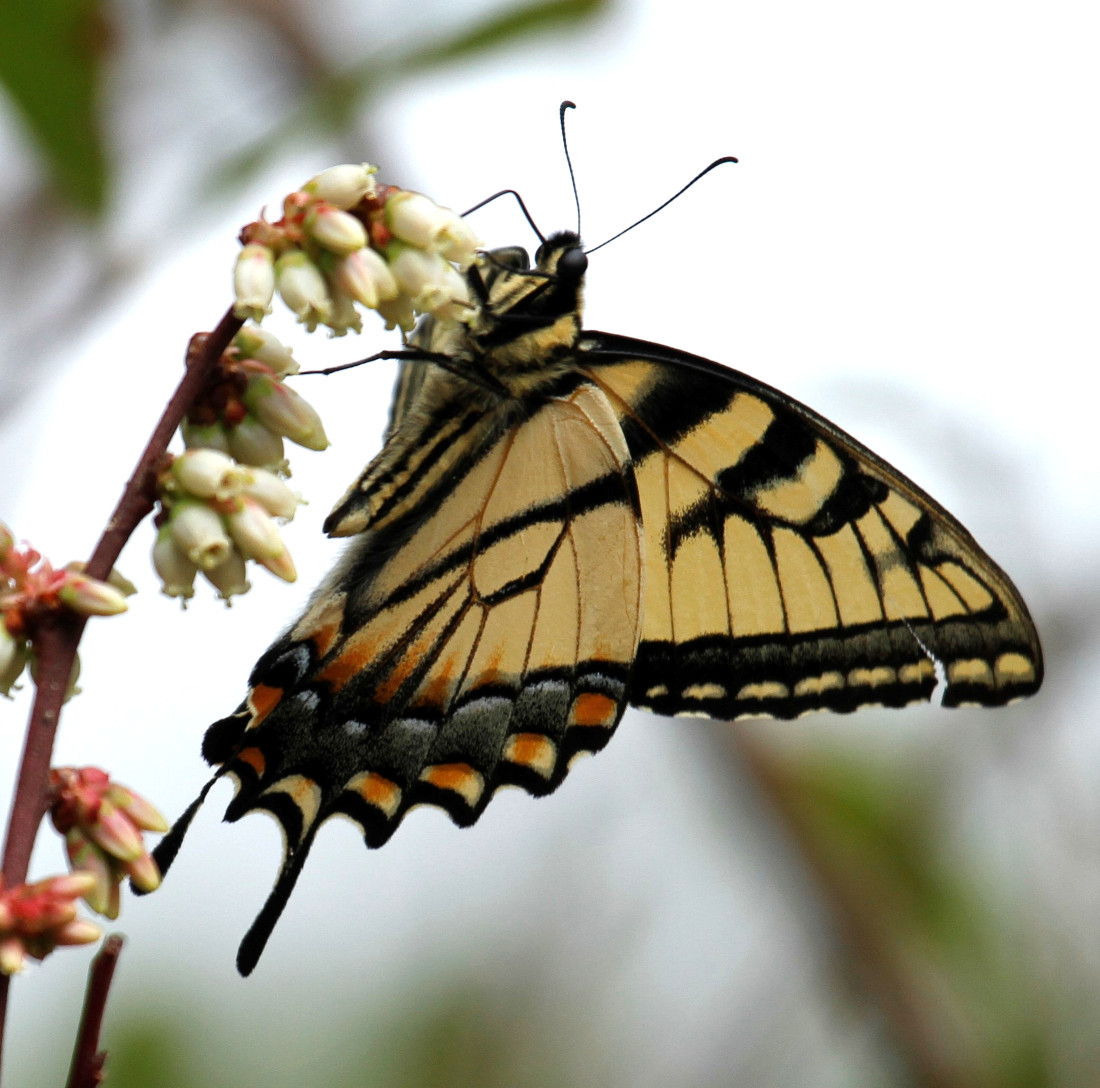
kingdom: Animalia
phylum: Arthropoda
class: Insecta
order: Lepidoptera
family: Papilionidae
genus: Papilio
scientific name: Papilio glaucus
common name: Tiger swallowtail
